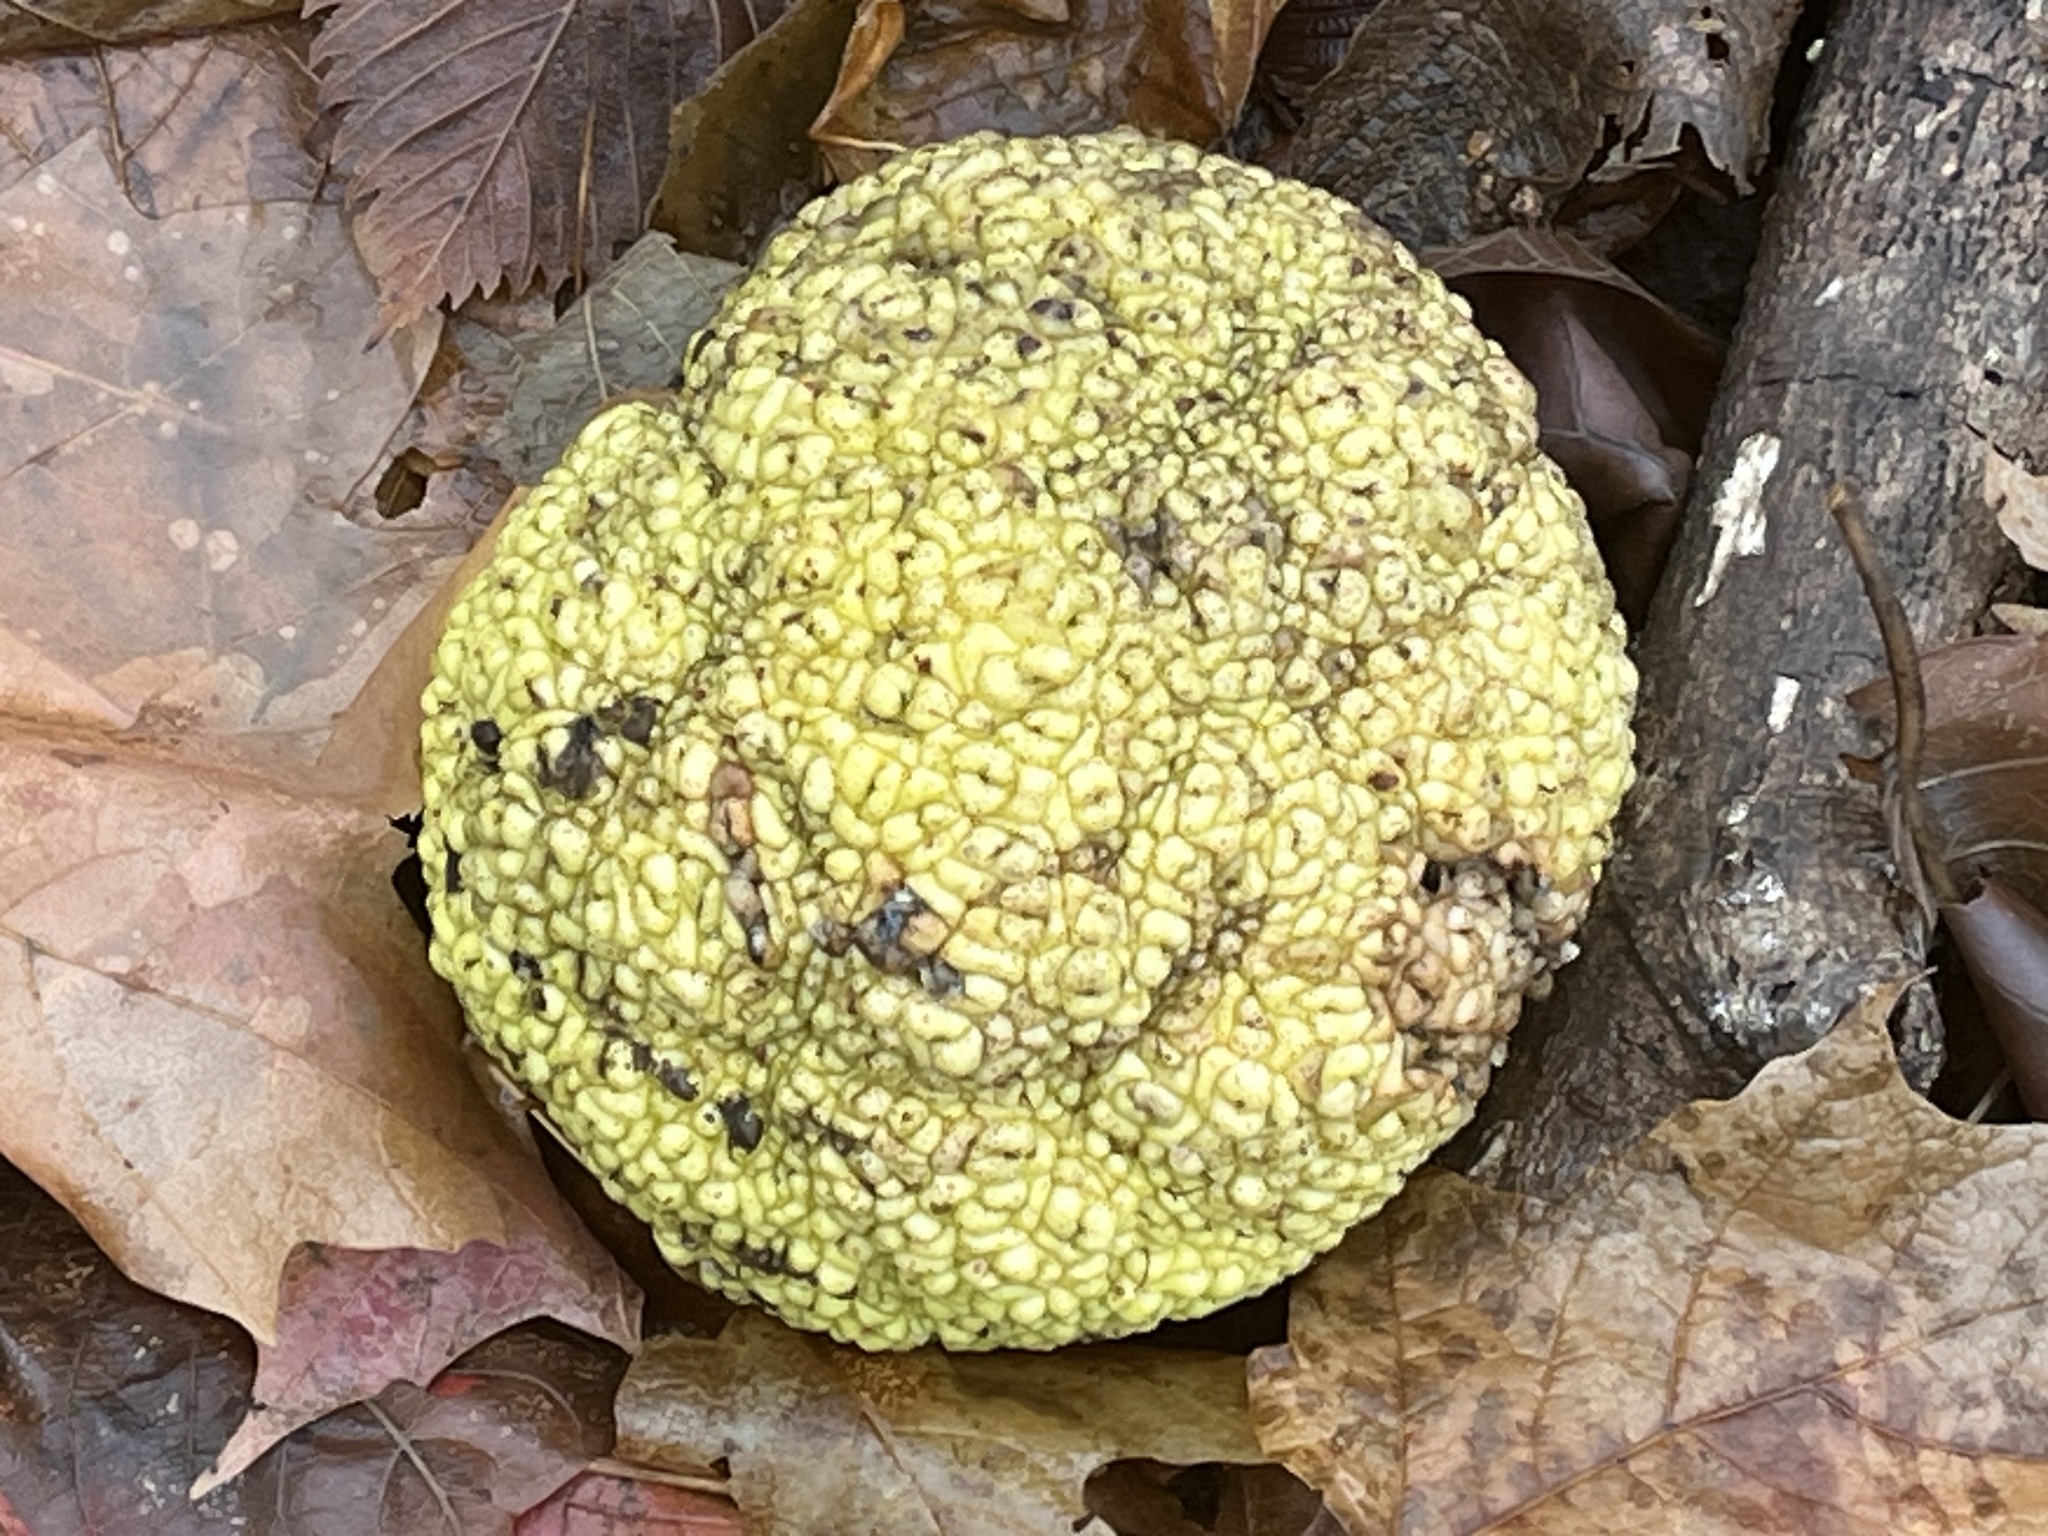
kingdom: Plantae
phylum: Tracheophyta
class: Magnoliopsida
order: Rosales
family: Moraceae
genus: Maclura
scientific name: Maclura pomifera
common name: Osage-orange
